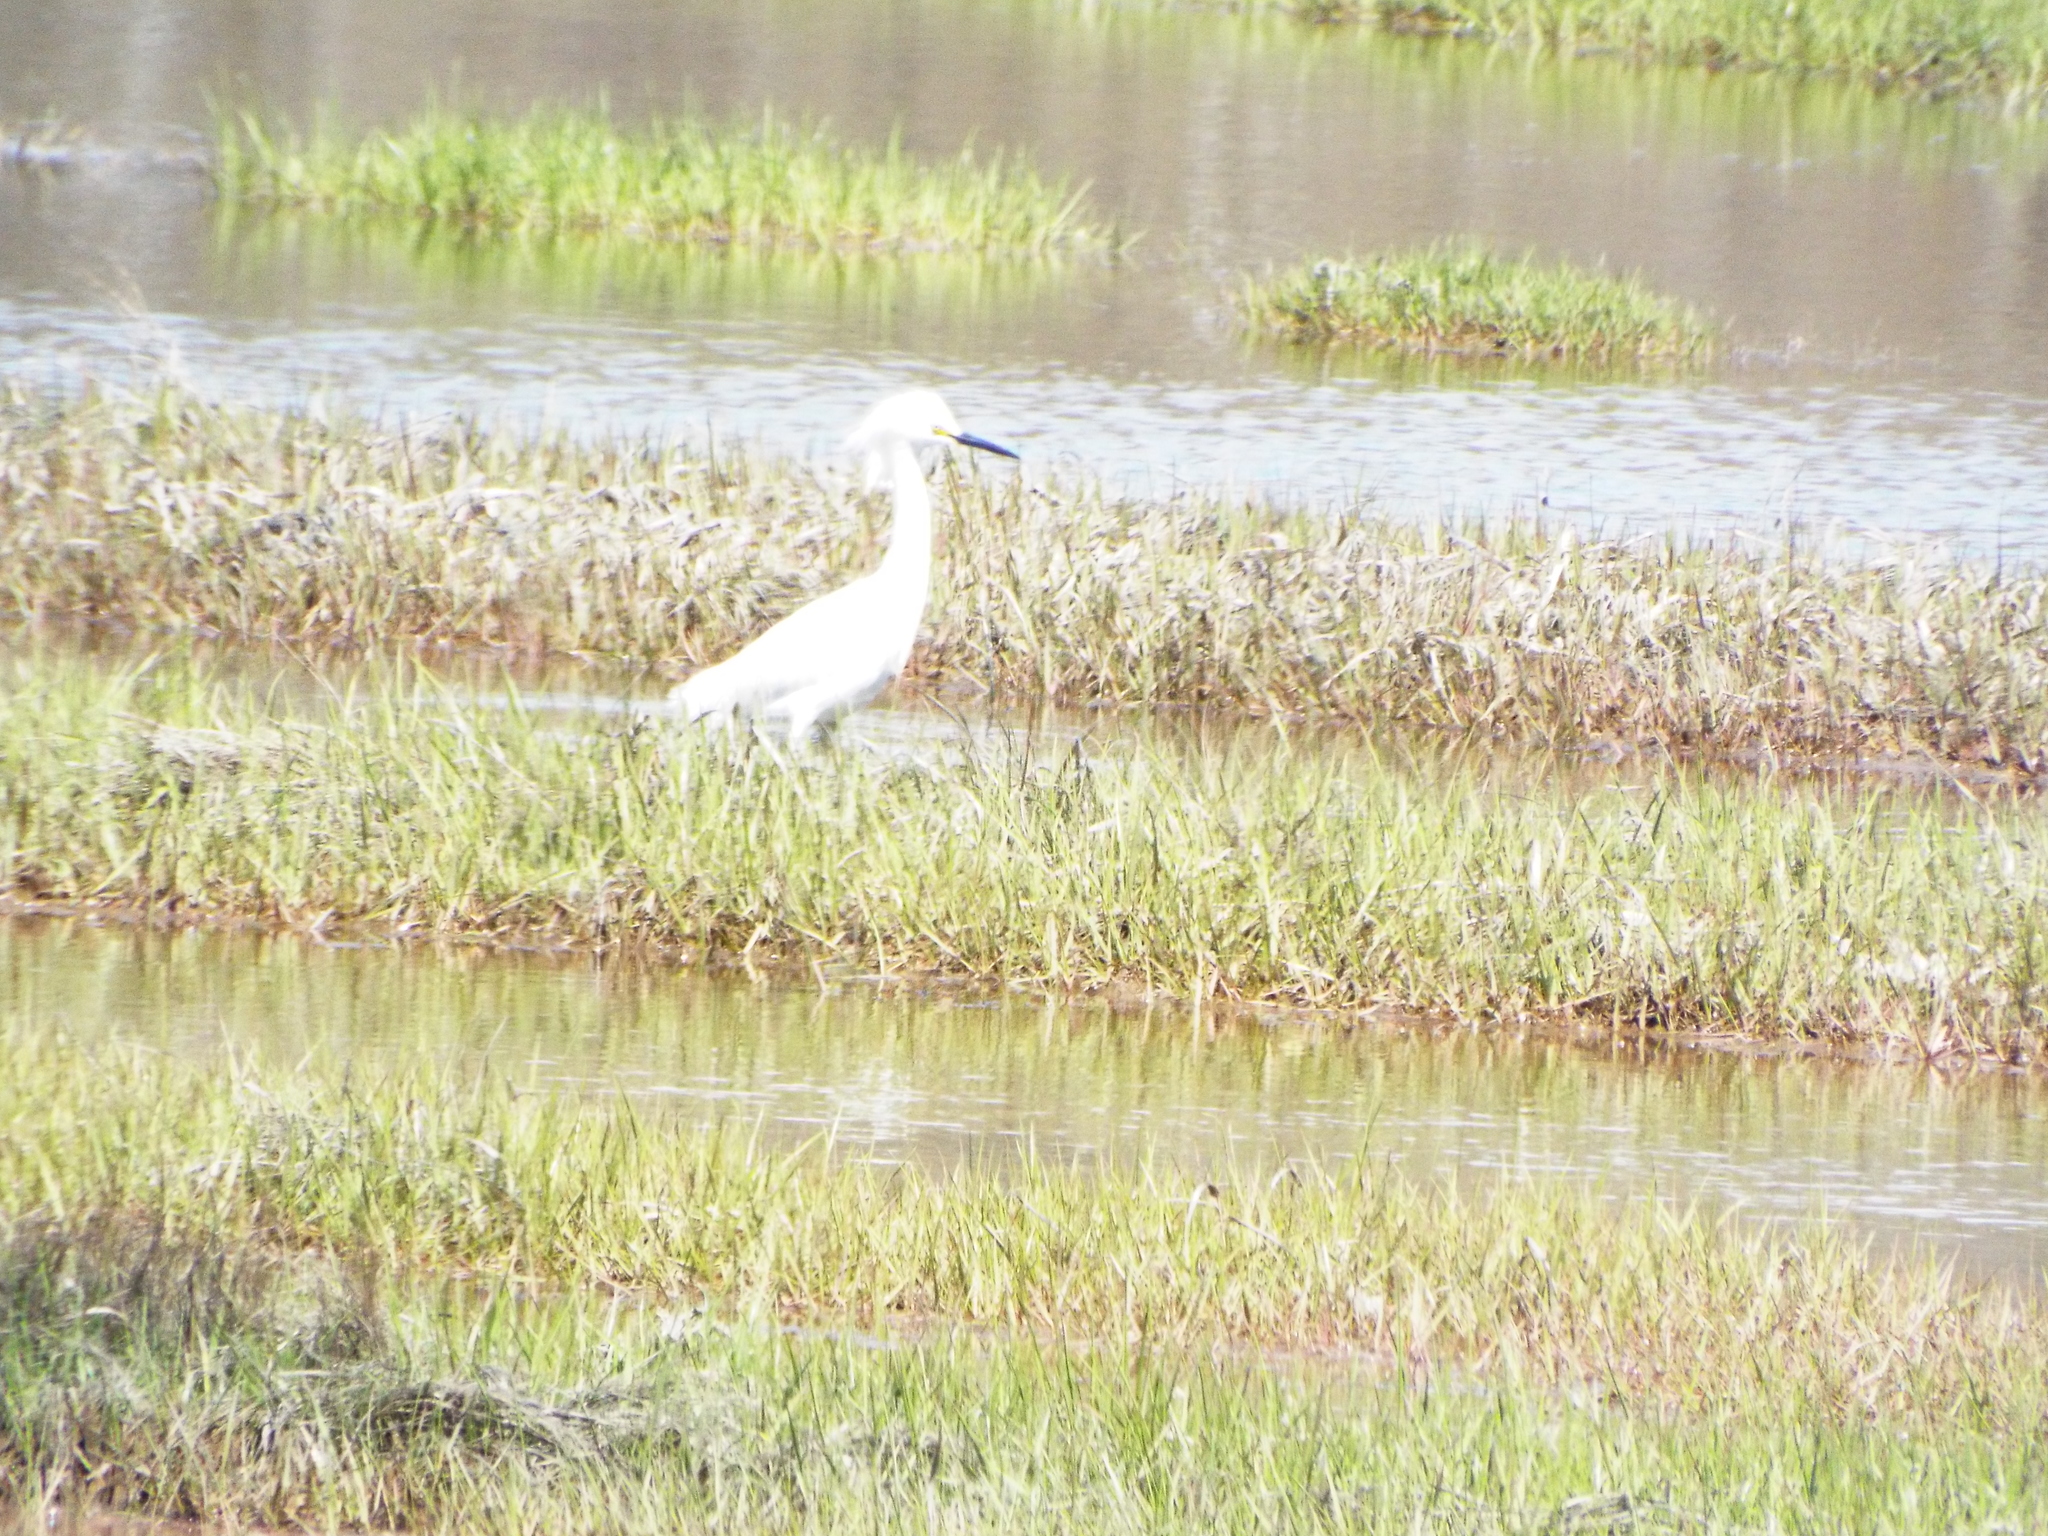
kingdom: Animalia
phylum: Chordata
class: Aves
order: Pelecaniformes
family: Ardeidae
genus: Egretta
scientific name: Egretta thula
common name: Snowy egret
